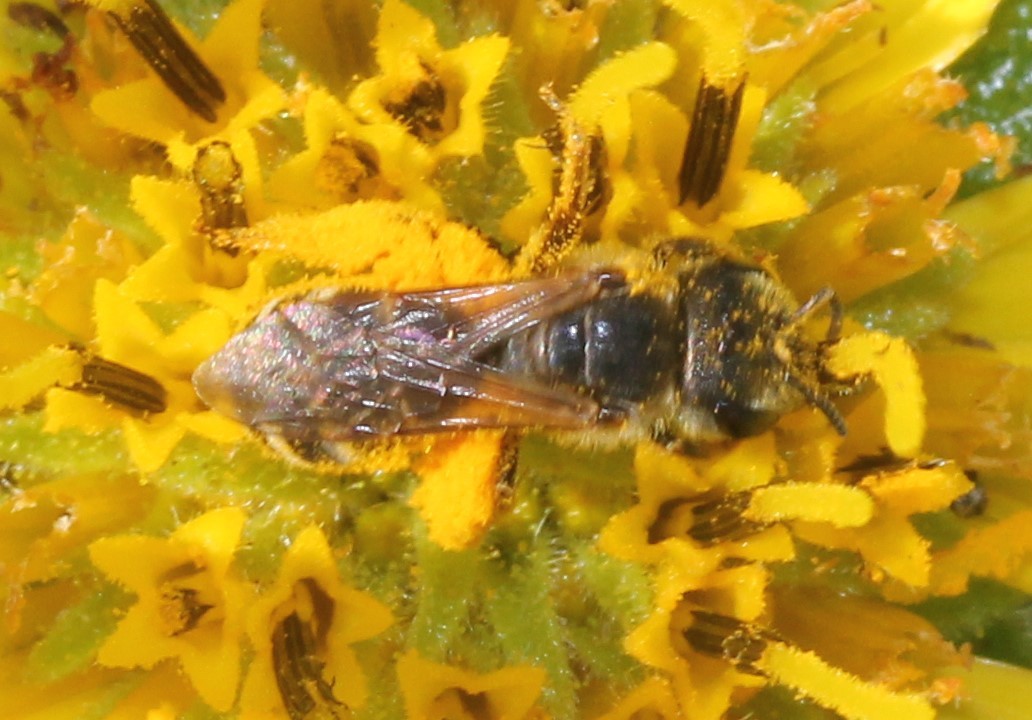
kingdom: Animalia
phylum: Arthropoda
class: Insecta
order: Hymenoptera
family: Halictidae
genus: Halictus
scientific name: Halictus ligatus
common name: Ligated furrow bee
